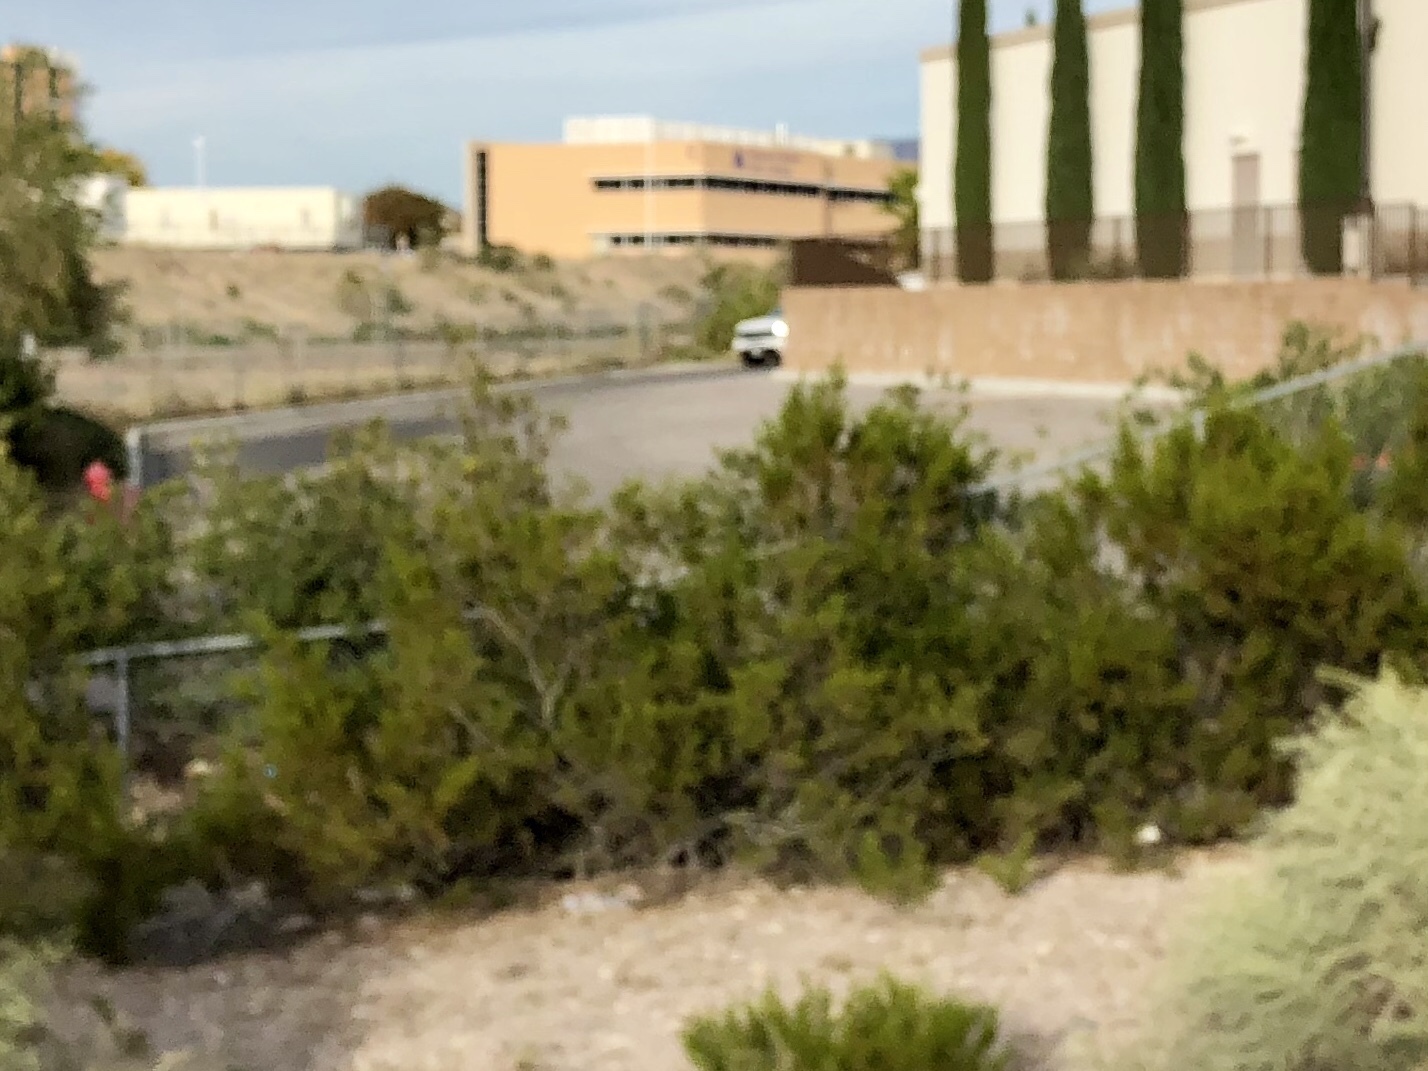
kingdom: Plantae
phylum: Tracheophyta
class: Magnoliopsida
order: Zygophyllales
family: Zygophyllaceae
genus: Larrea
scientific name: Larrea tridentata
